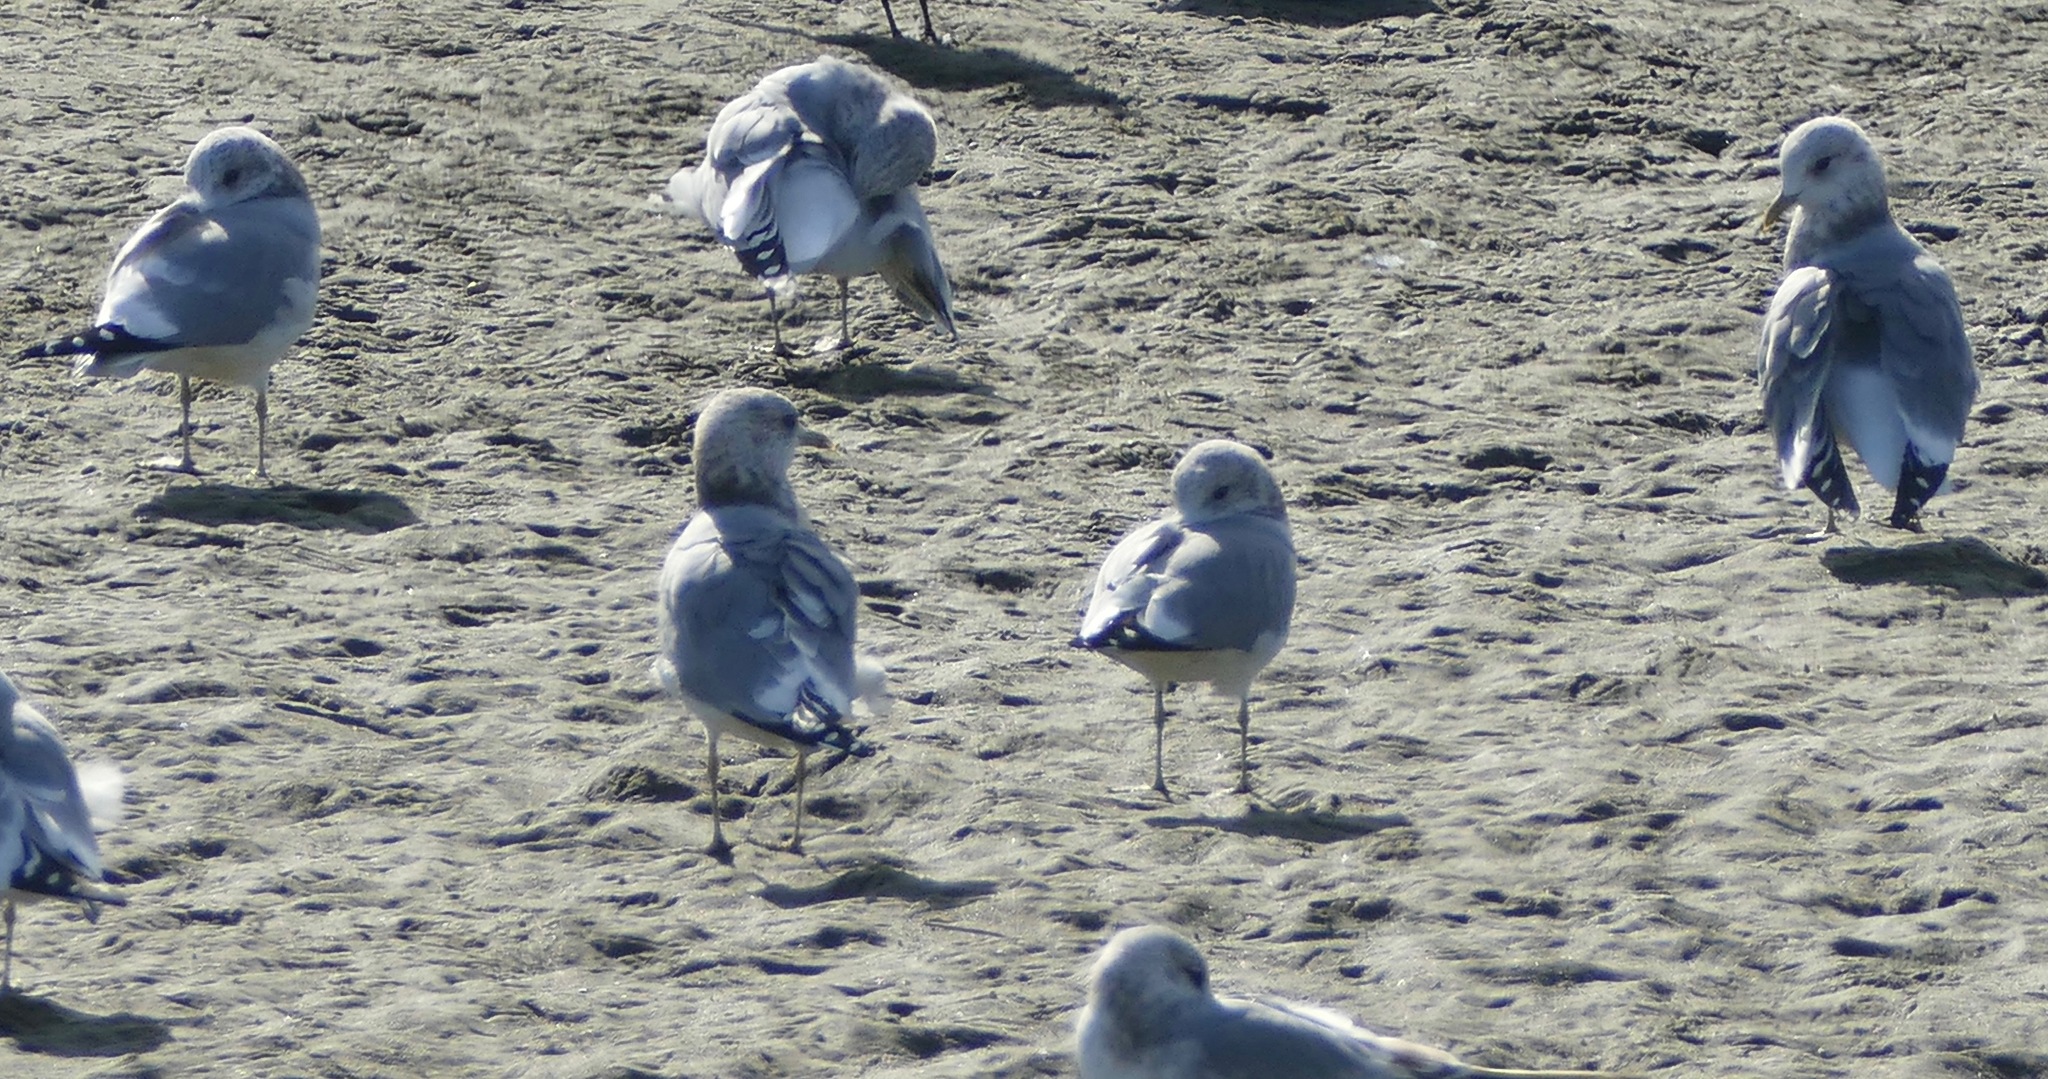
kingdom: Animalia
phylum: Chordata
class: Aves
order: Charadriiformes
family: Laridae
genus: Larus
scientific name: Larus brachyrhynchus
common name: Short-billed gull
